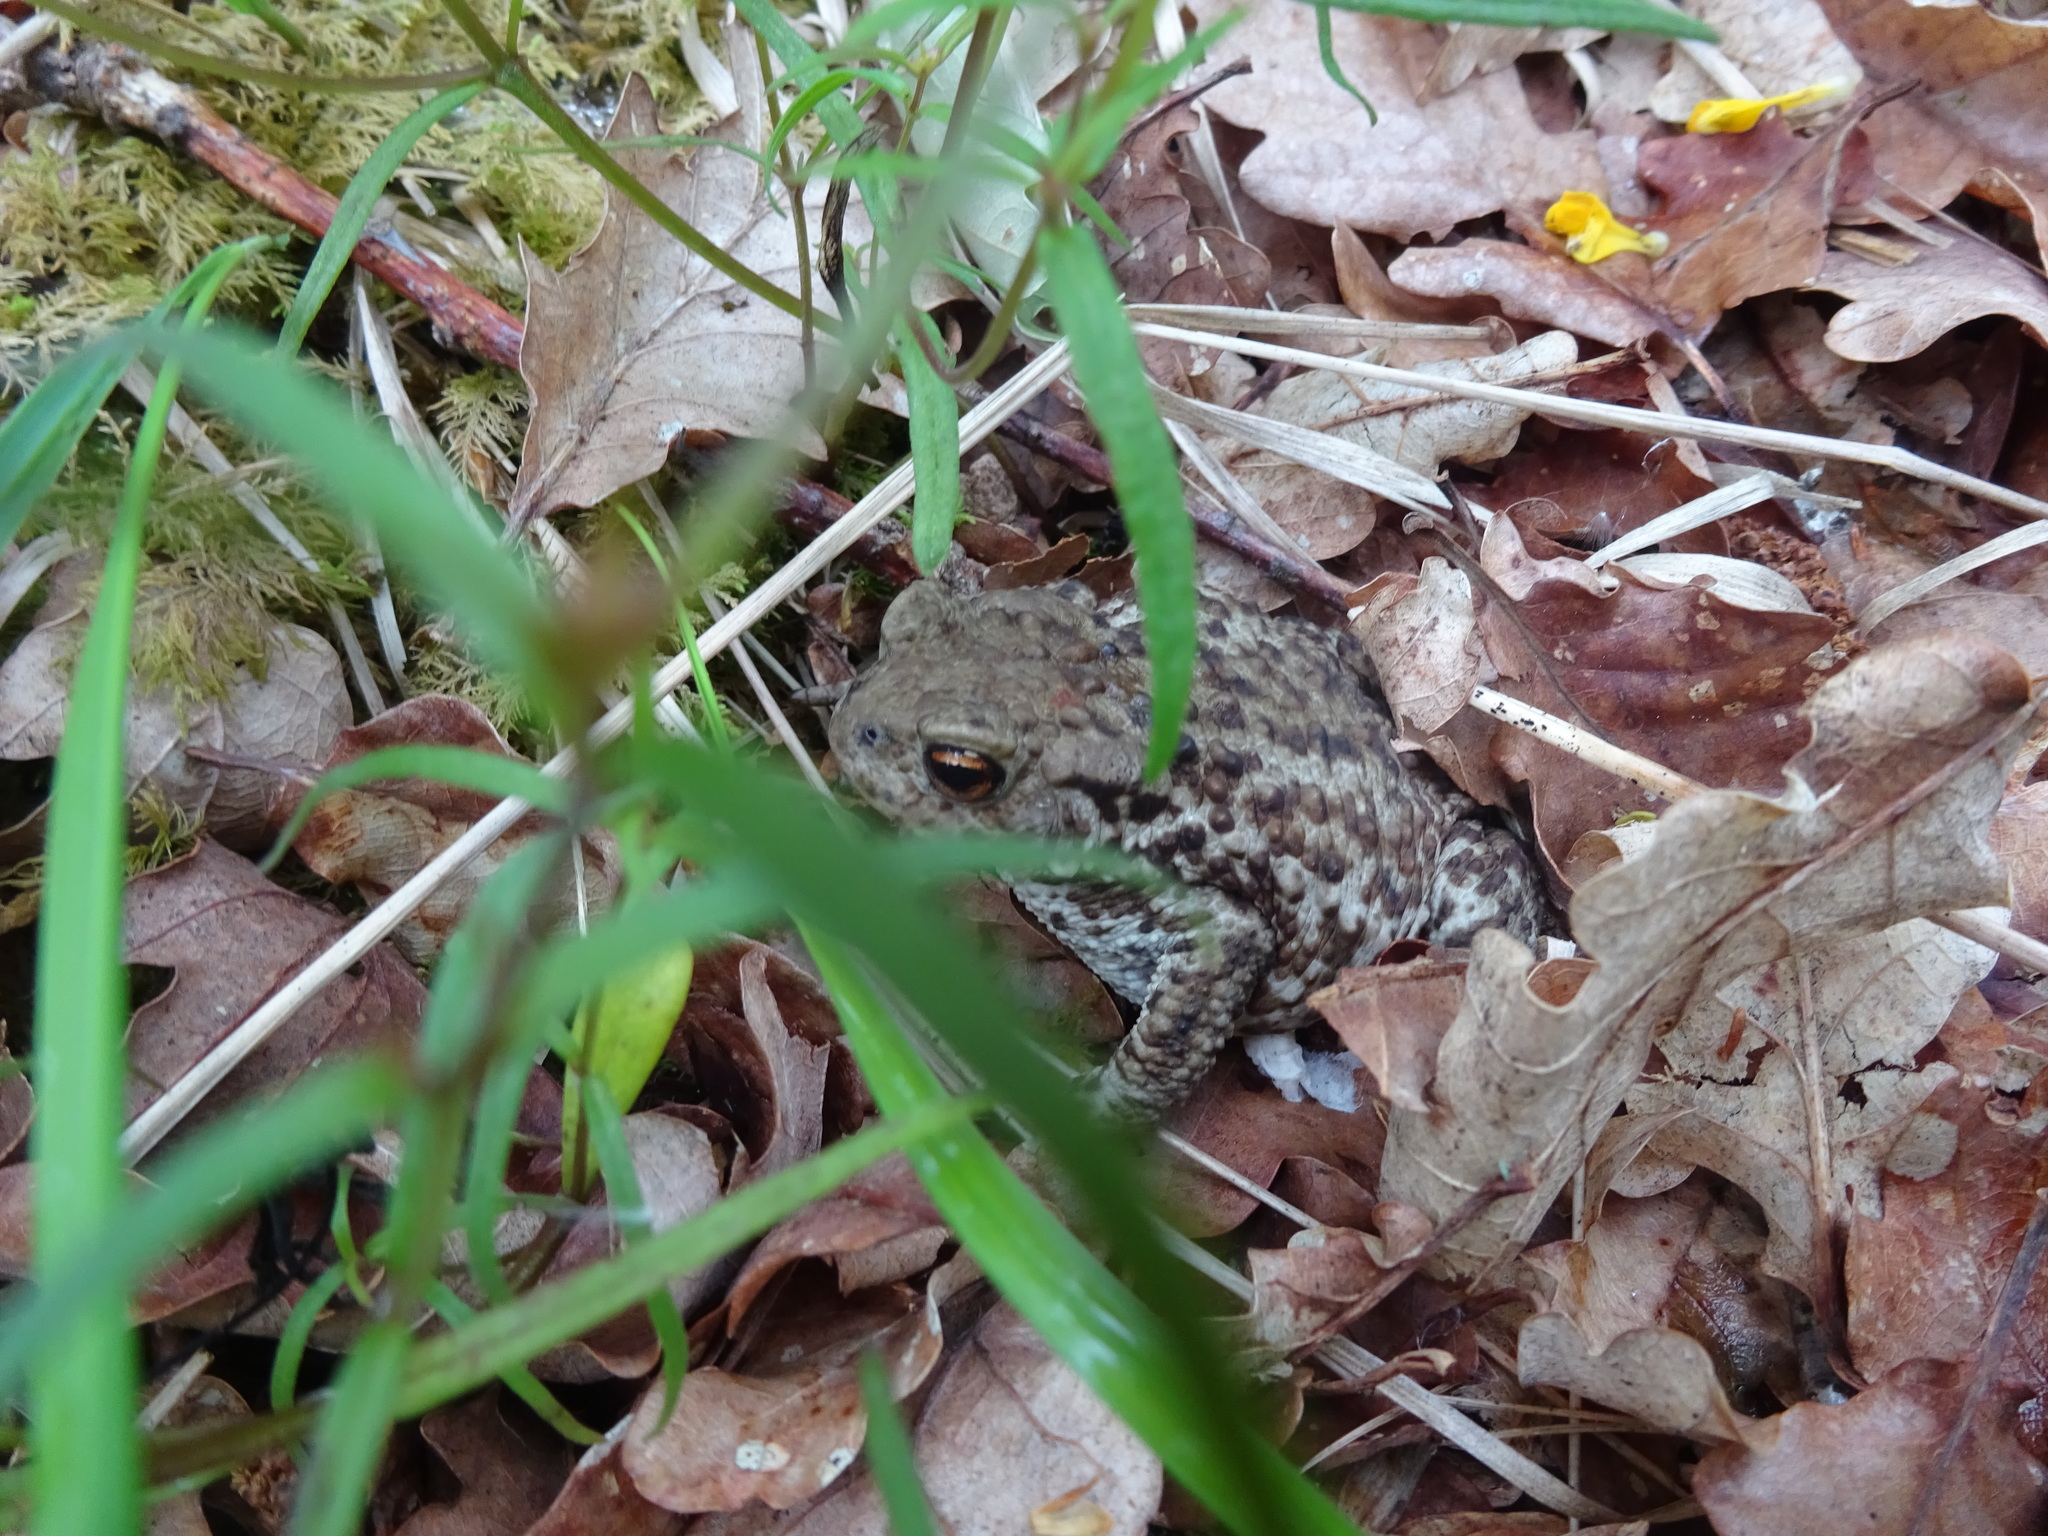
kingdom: Animalia
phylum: Chordata
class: Amphibia
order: Anura
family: Bufonidae
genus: Bufo
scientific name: Bufo bufo
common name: Common toad
